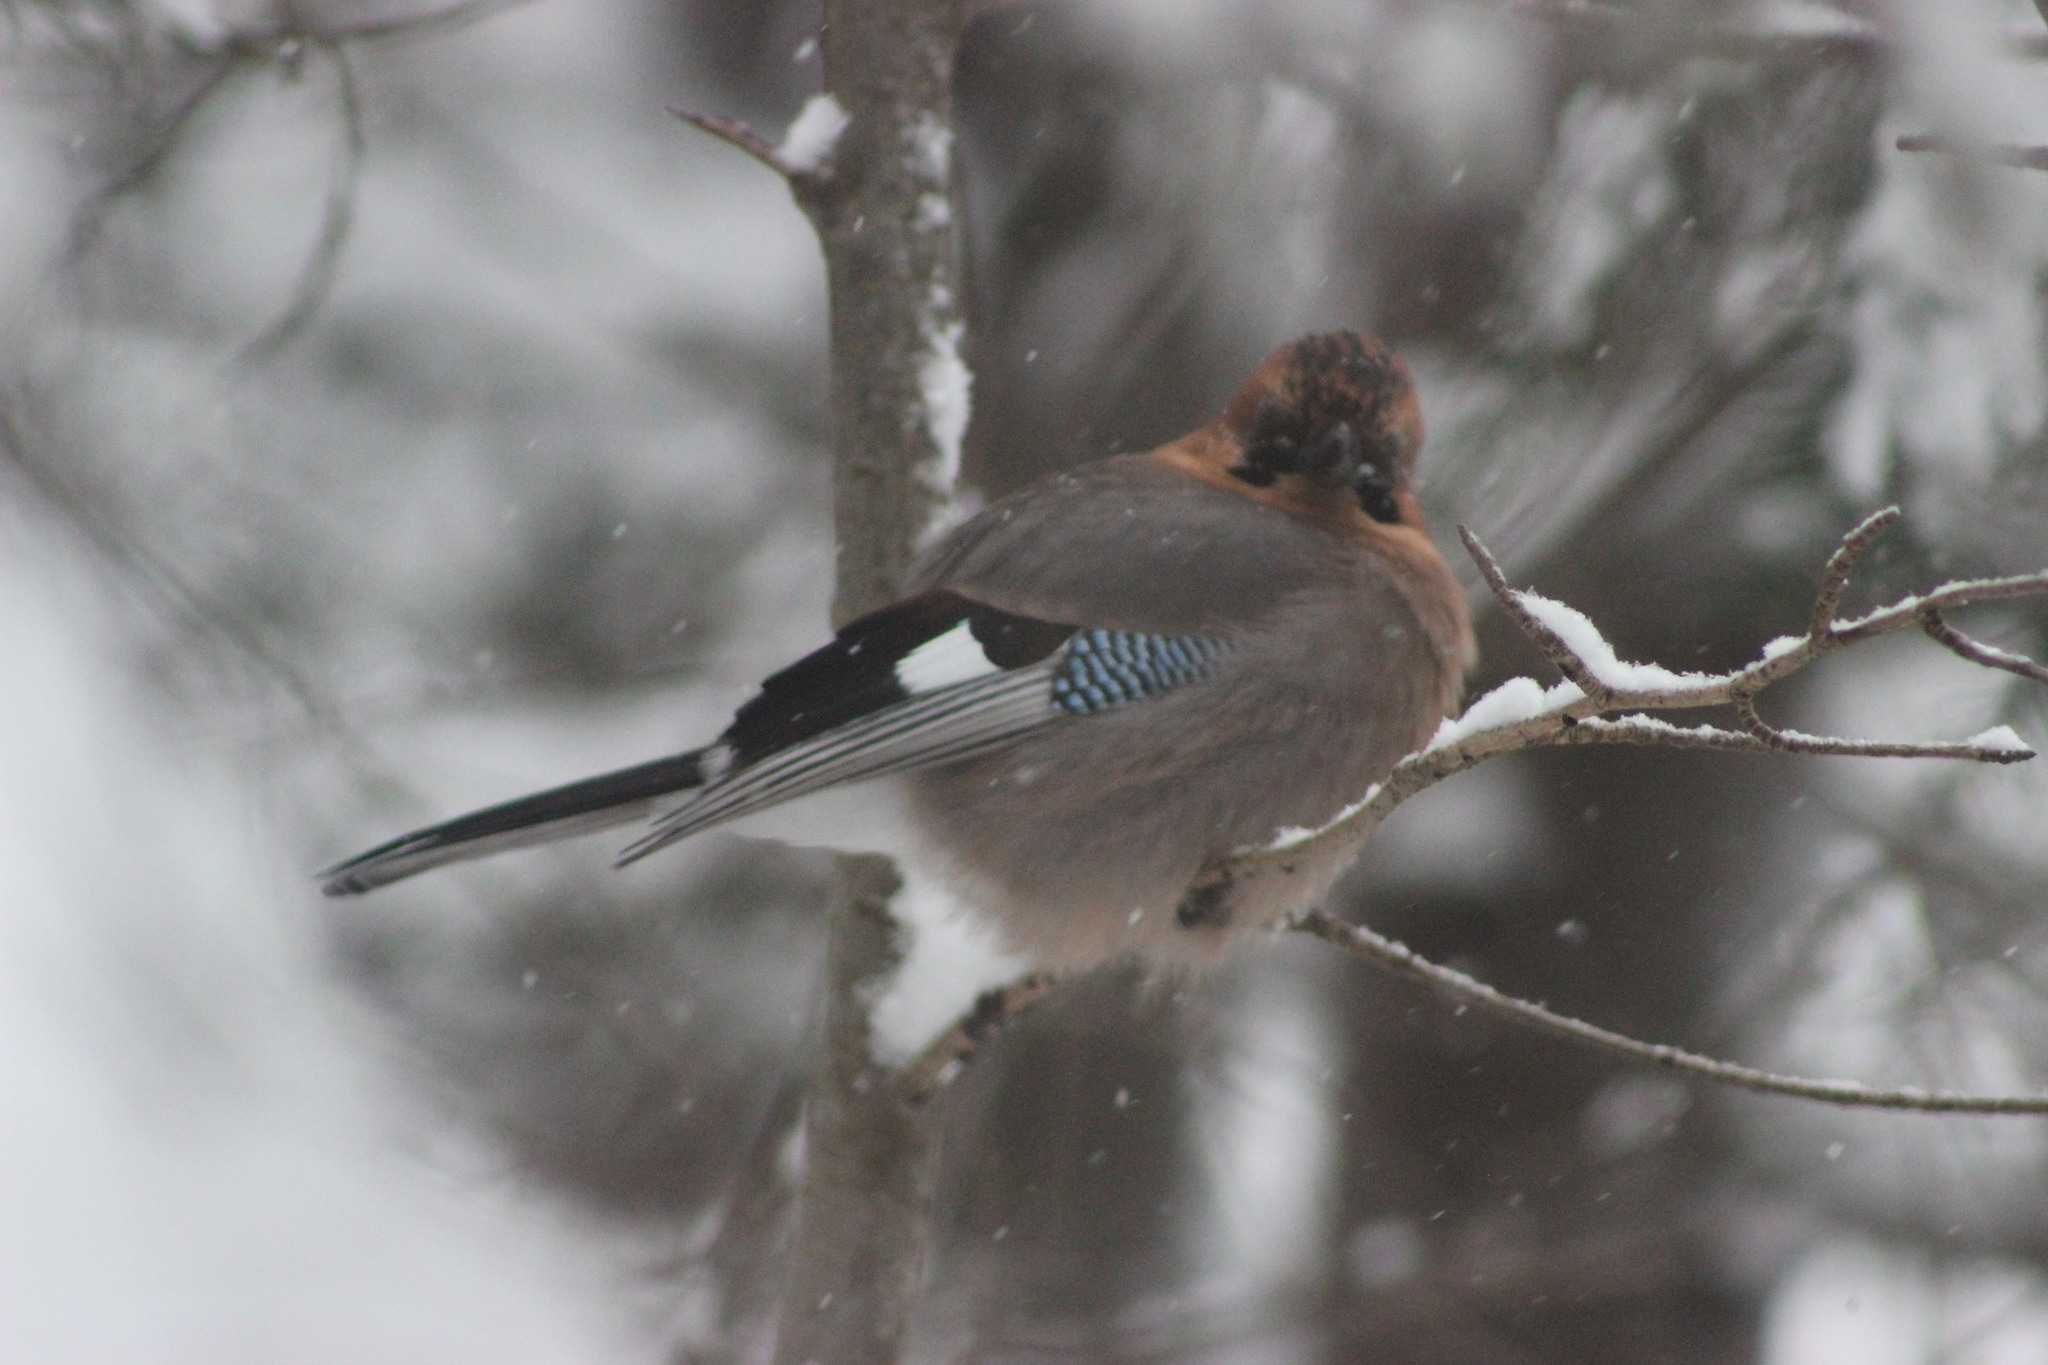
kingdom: Animalia
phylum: Chordata
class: Aves
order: Passeriformes
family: Corvidae
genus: Garrulus
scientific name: Garrulus glandarius
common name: Eurasian jay
